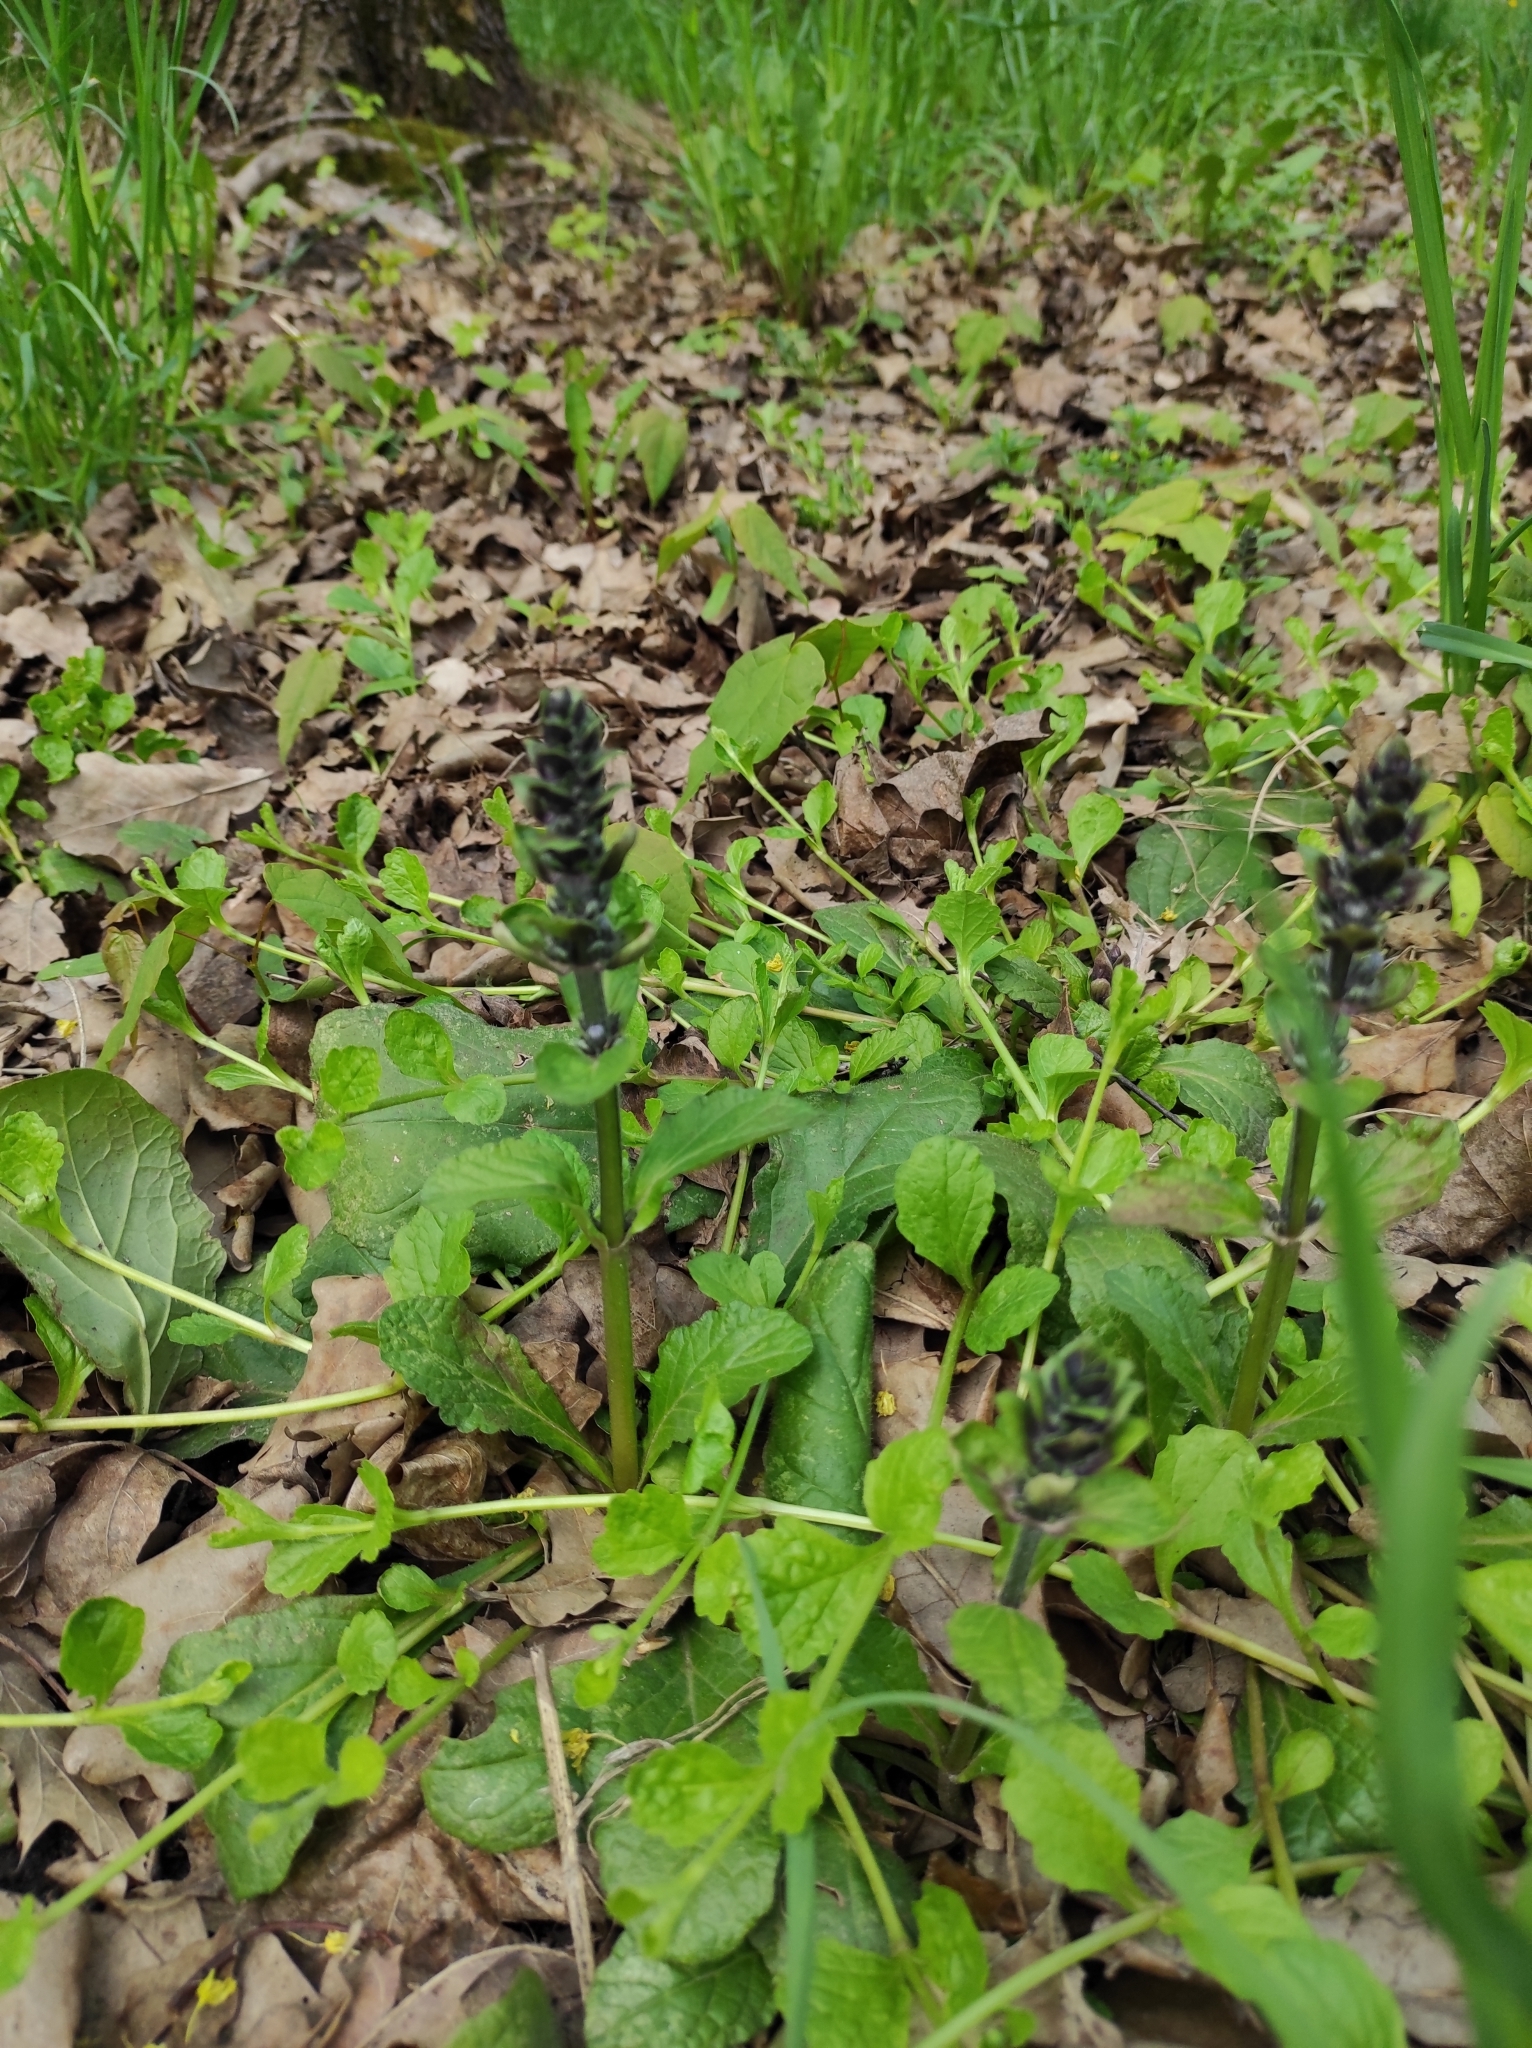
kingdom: Plantae
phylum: Tracheophyta
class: Magnoliopsida
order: Lamiales
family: Lamiaceae
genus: Ajuga
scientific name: Ajuga reptans
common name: Bugle
